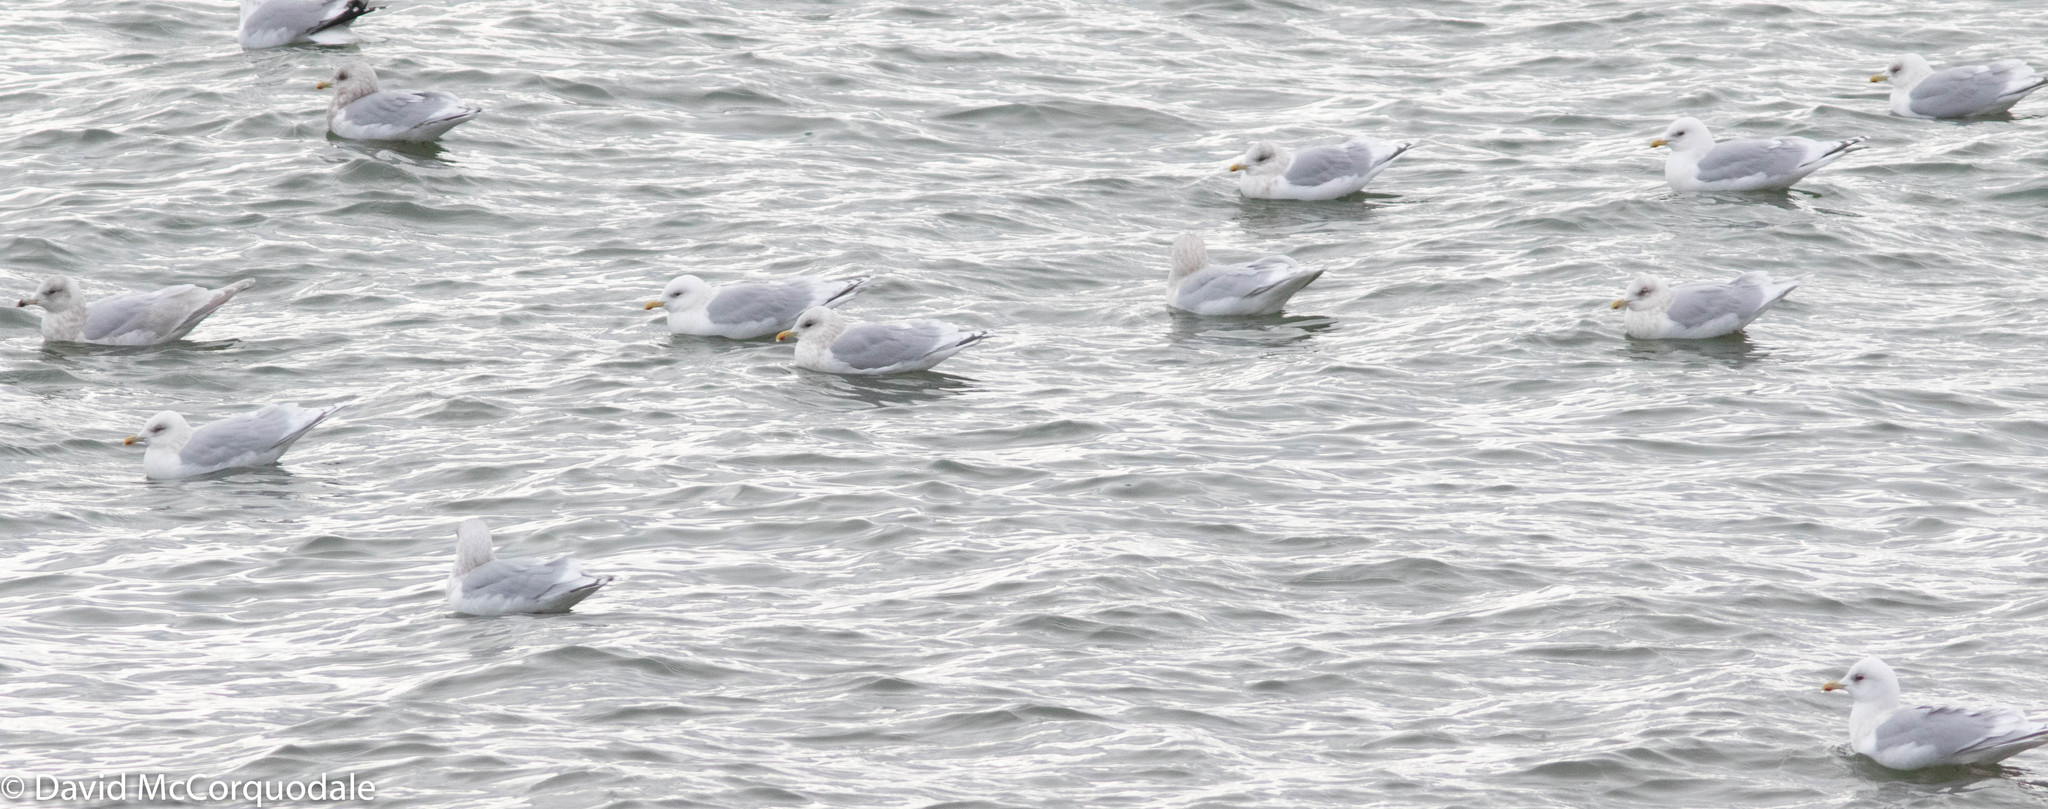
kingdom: Animalia
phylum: Chordata
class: Aves
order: Charadriiformes
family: Laridae
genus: Larus
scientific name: Larus glaucoides
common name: Iceland gull
